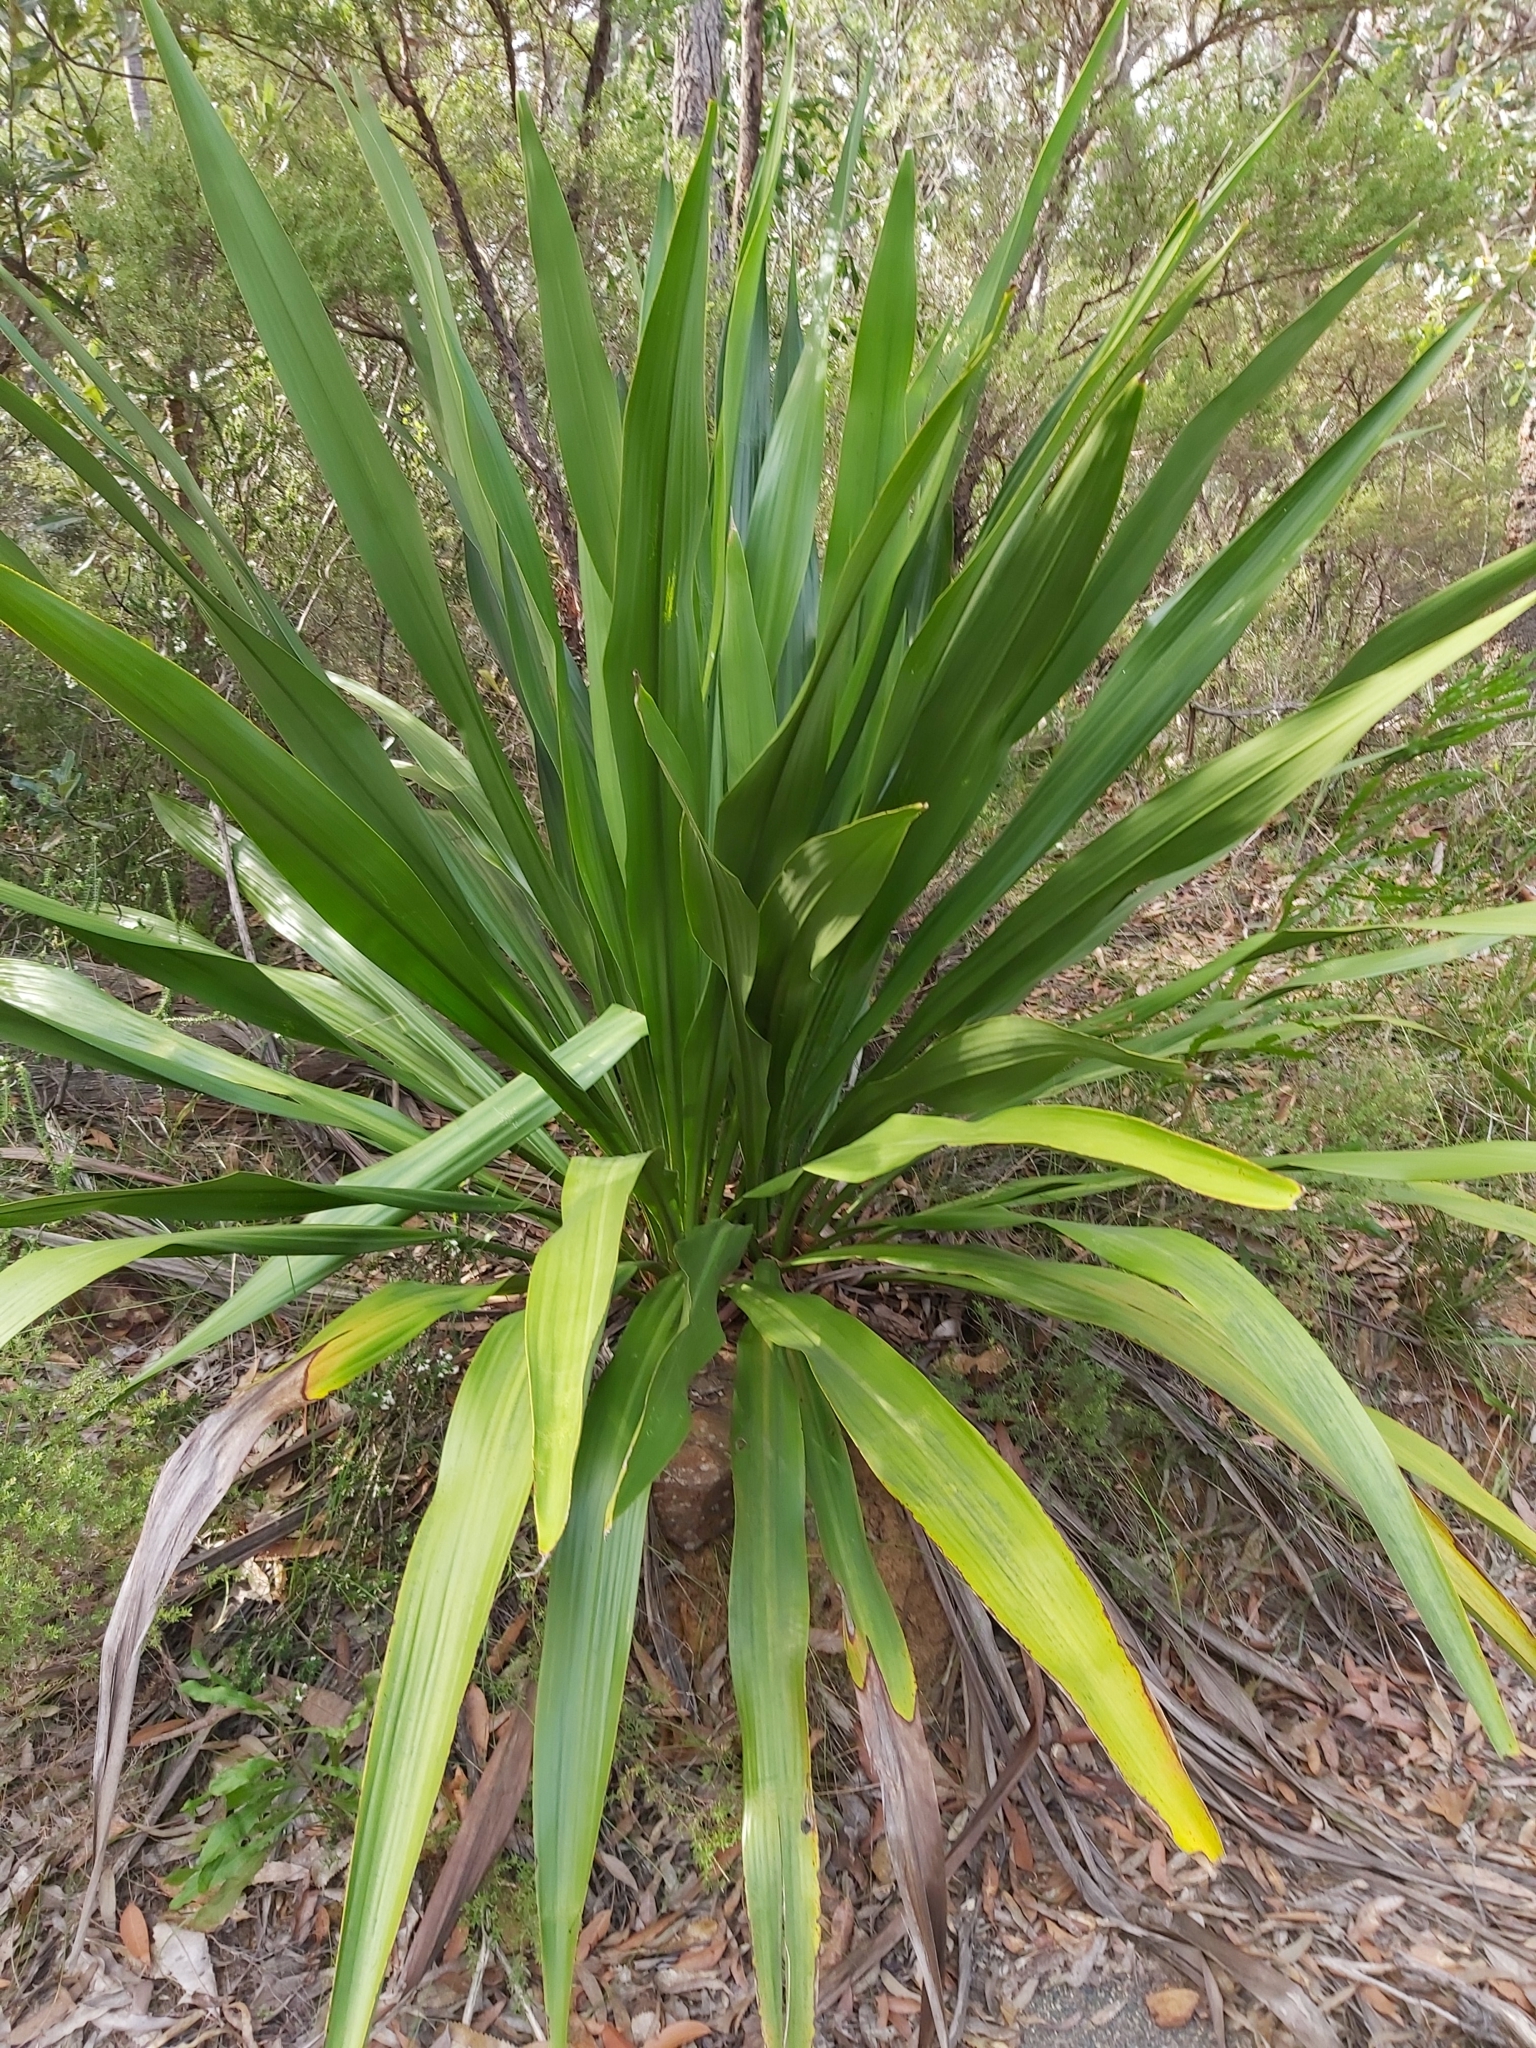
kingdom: Plantae
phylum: Tracheophyta
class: Liliopsida
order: Asparagales
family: Doryanthaceae
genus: Doryanthes
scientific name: Doryanthes excelsa
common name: Giant-lily
